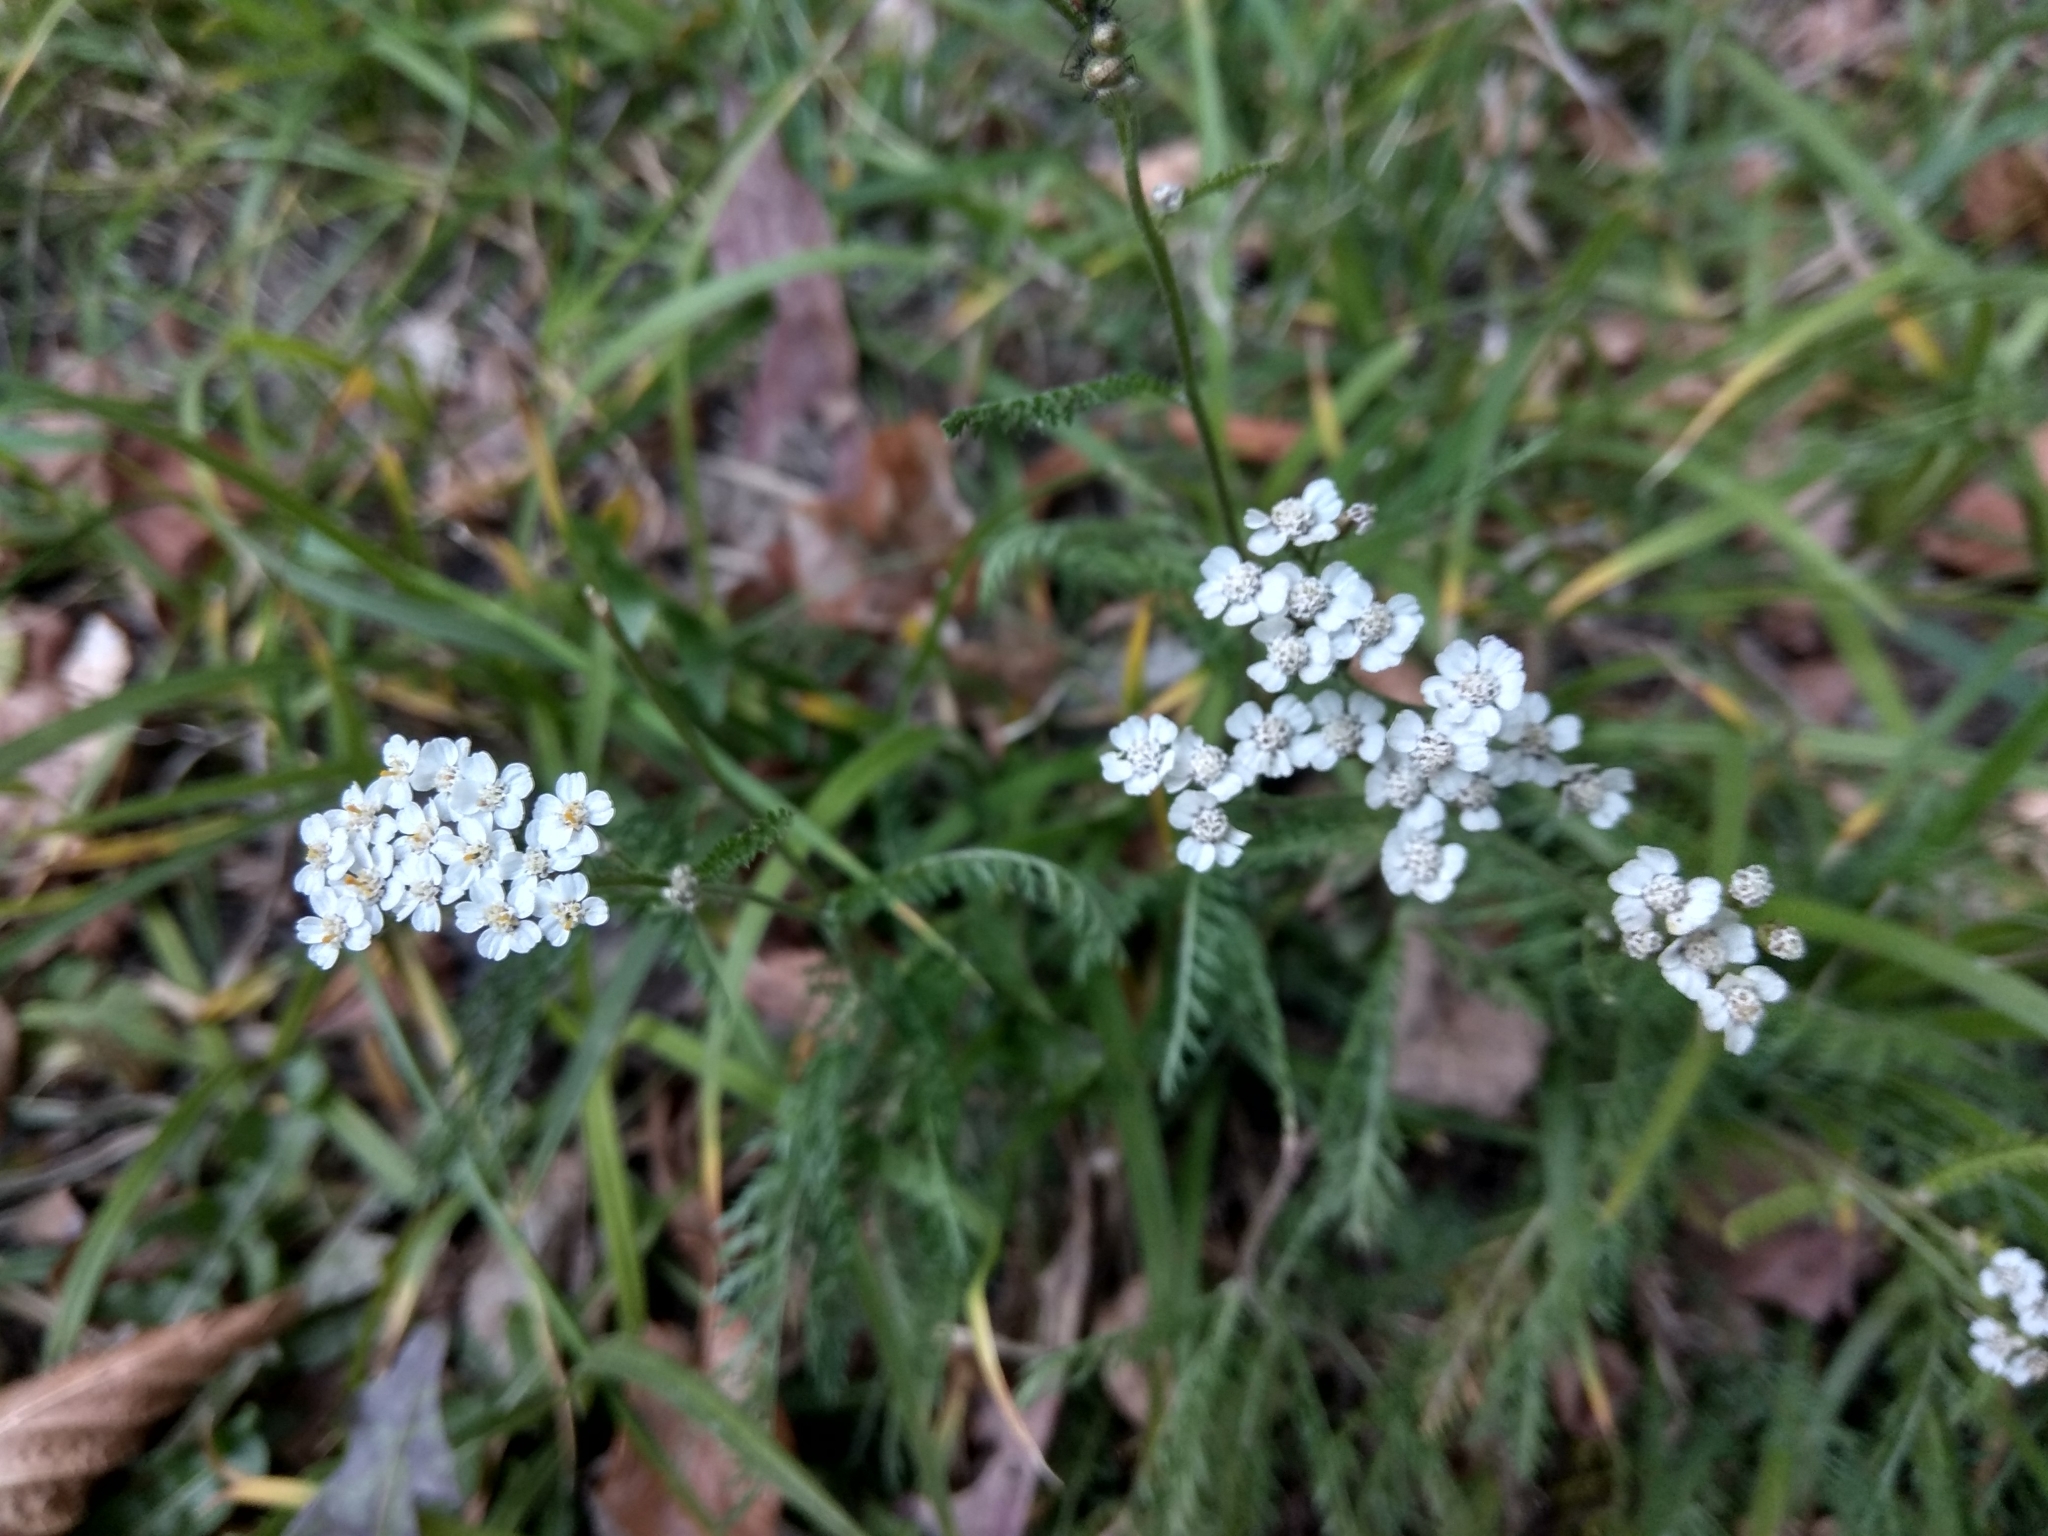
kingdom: Plantae
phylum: Tracheophyta
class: Magnoliopsida
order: Asterales
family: Asteraceae
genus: Achillea
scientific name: Achillea millefolium
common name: Yarrow
